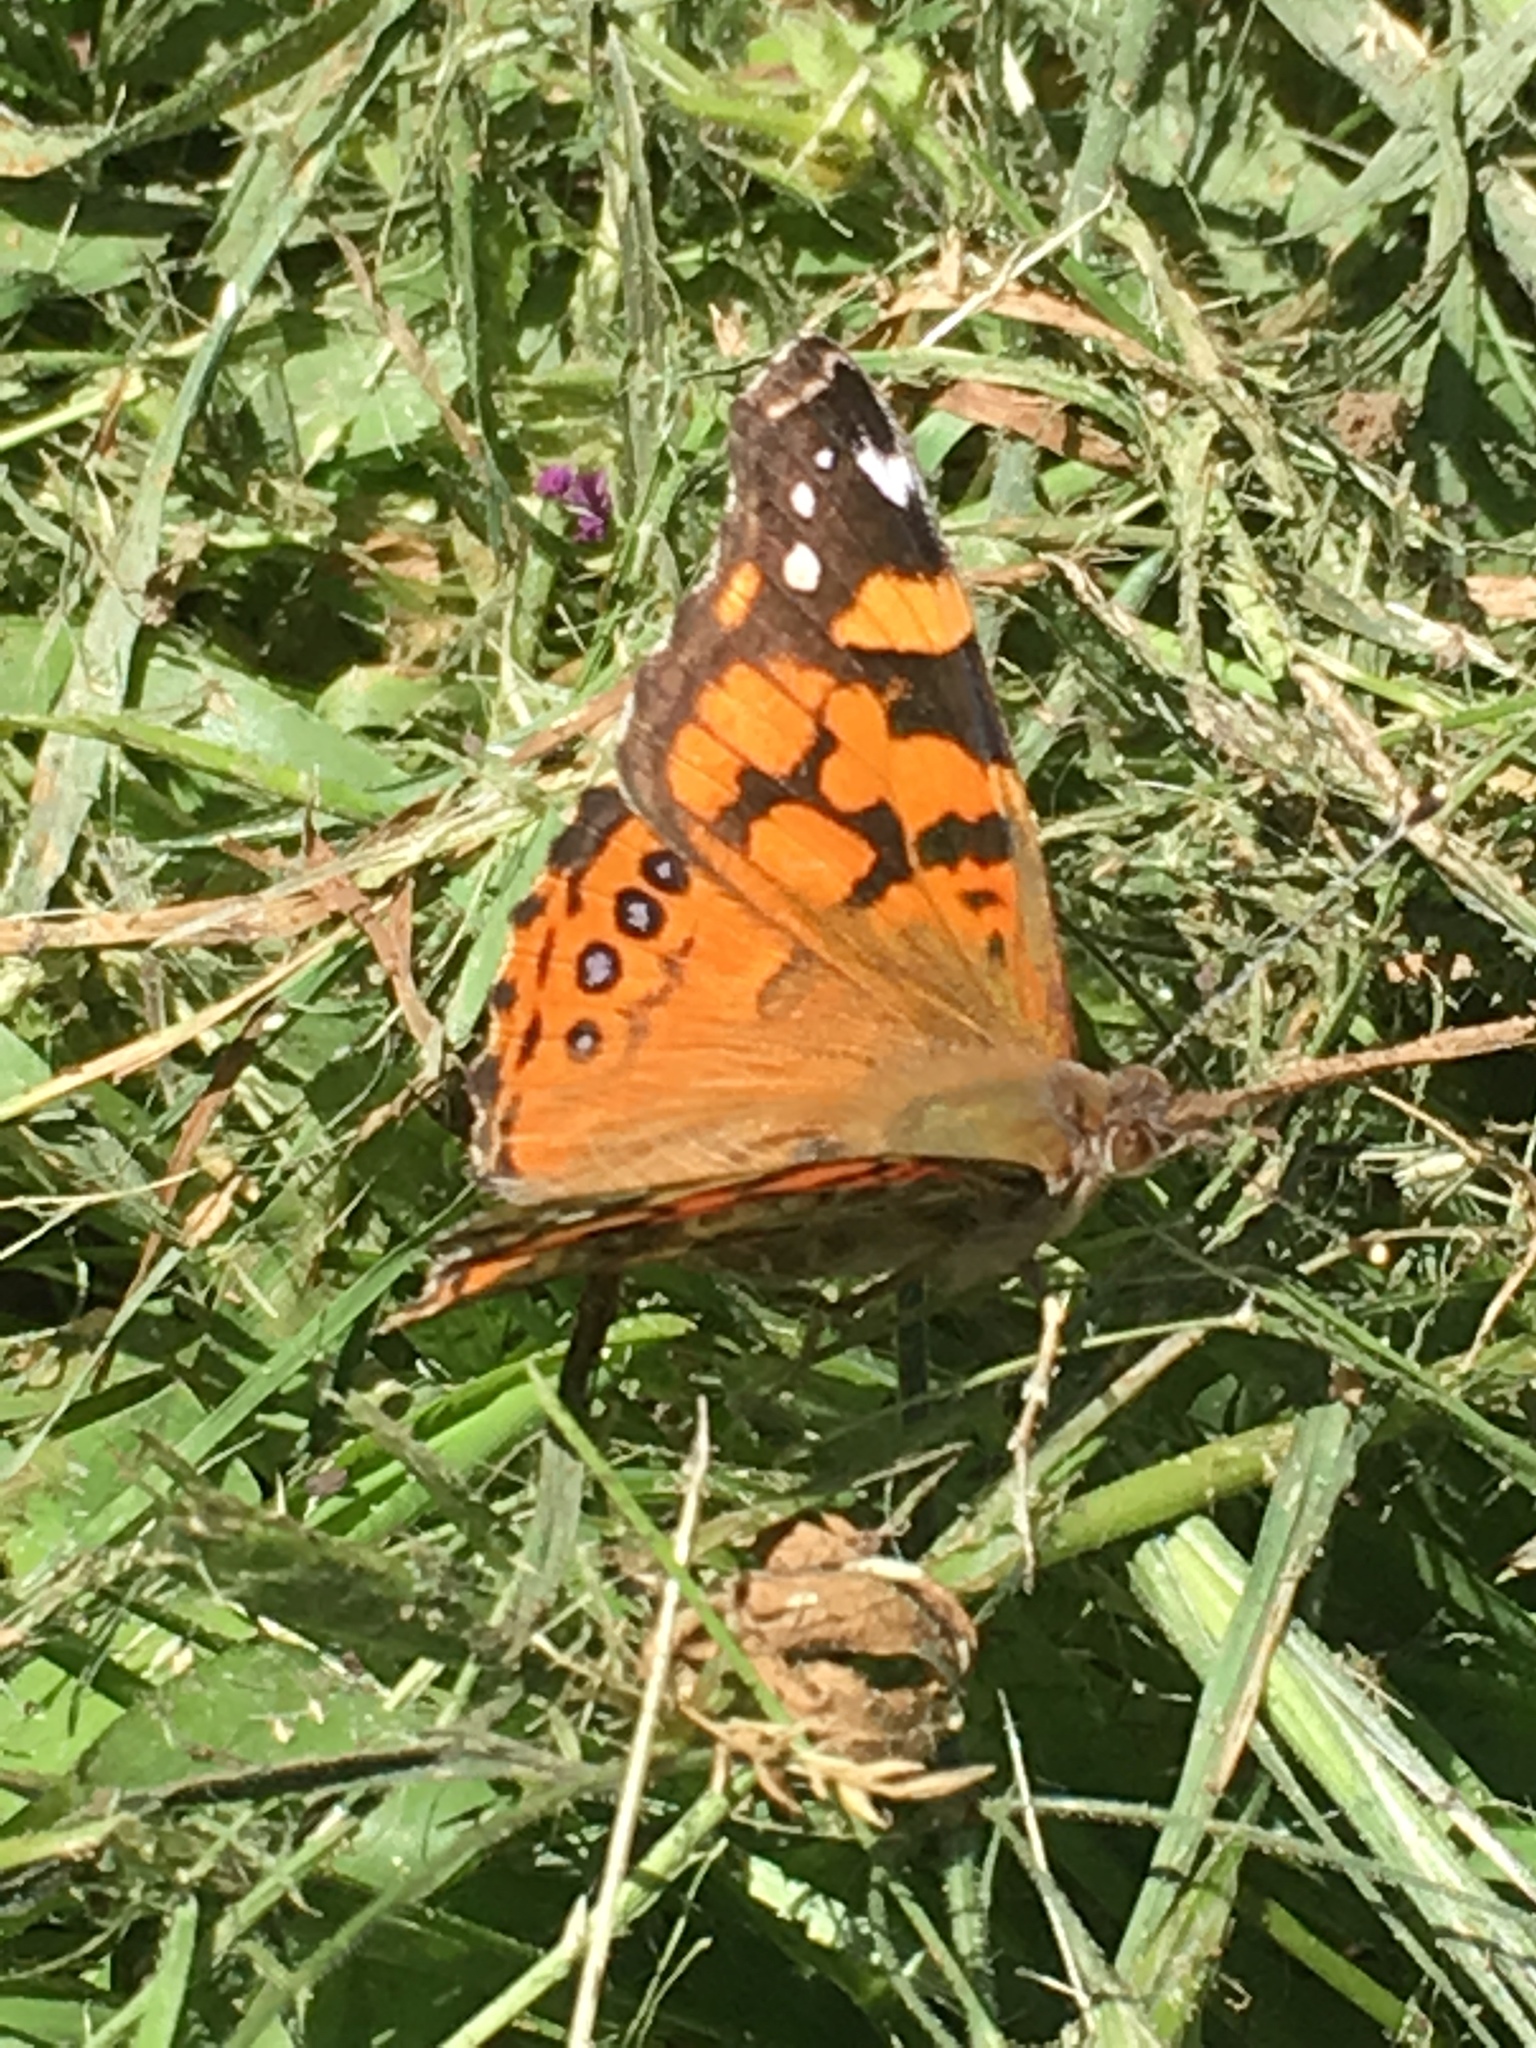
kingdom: Animalia
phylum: Arthropoda
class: Insecta
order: Lepidoptera
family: Nymphalidae
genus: Vanessa
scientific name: Vanessa annabella
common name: West coast lady
